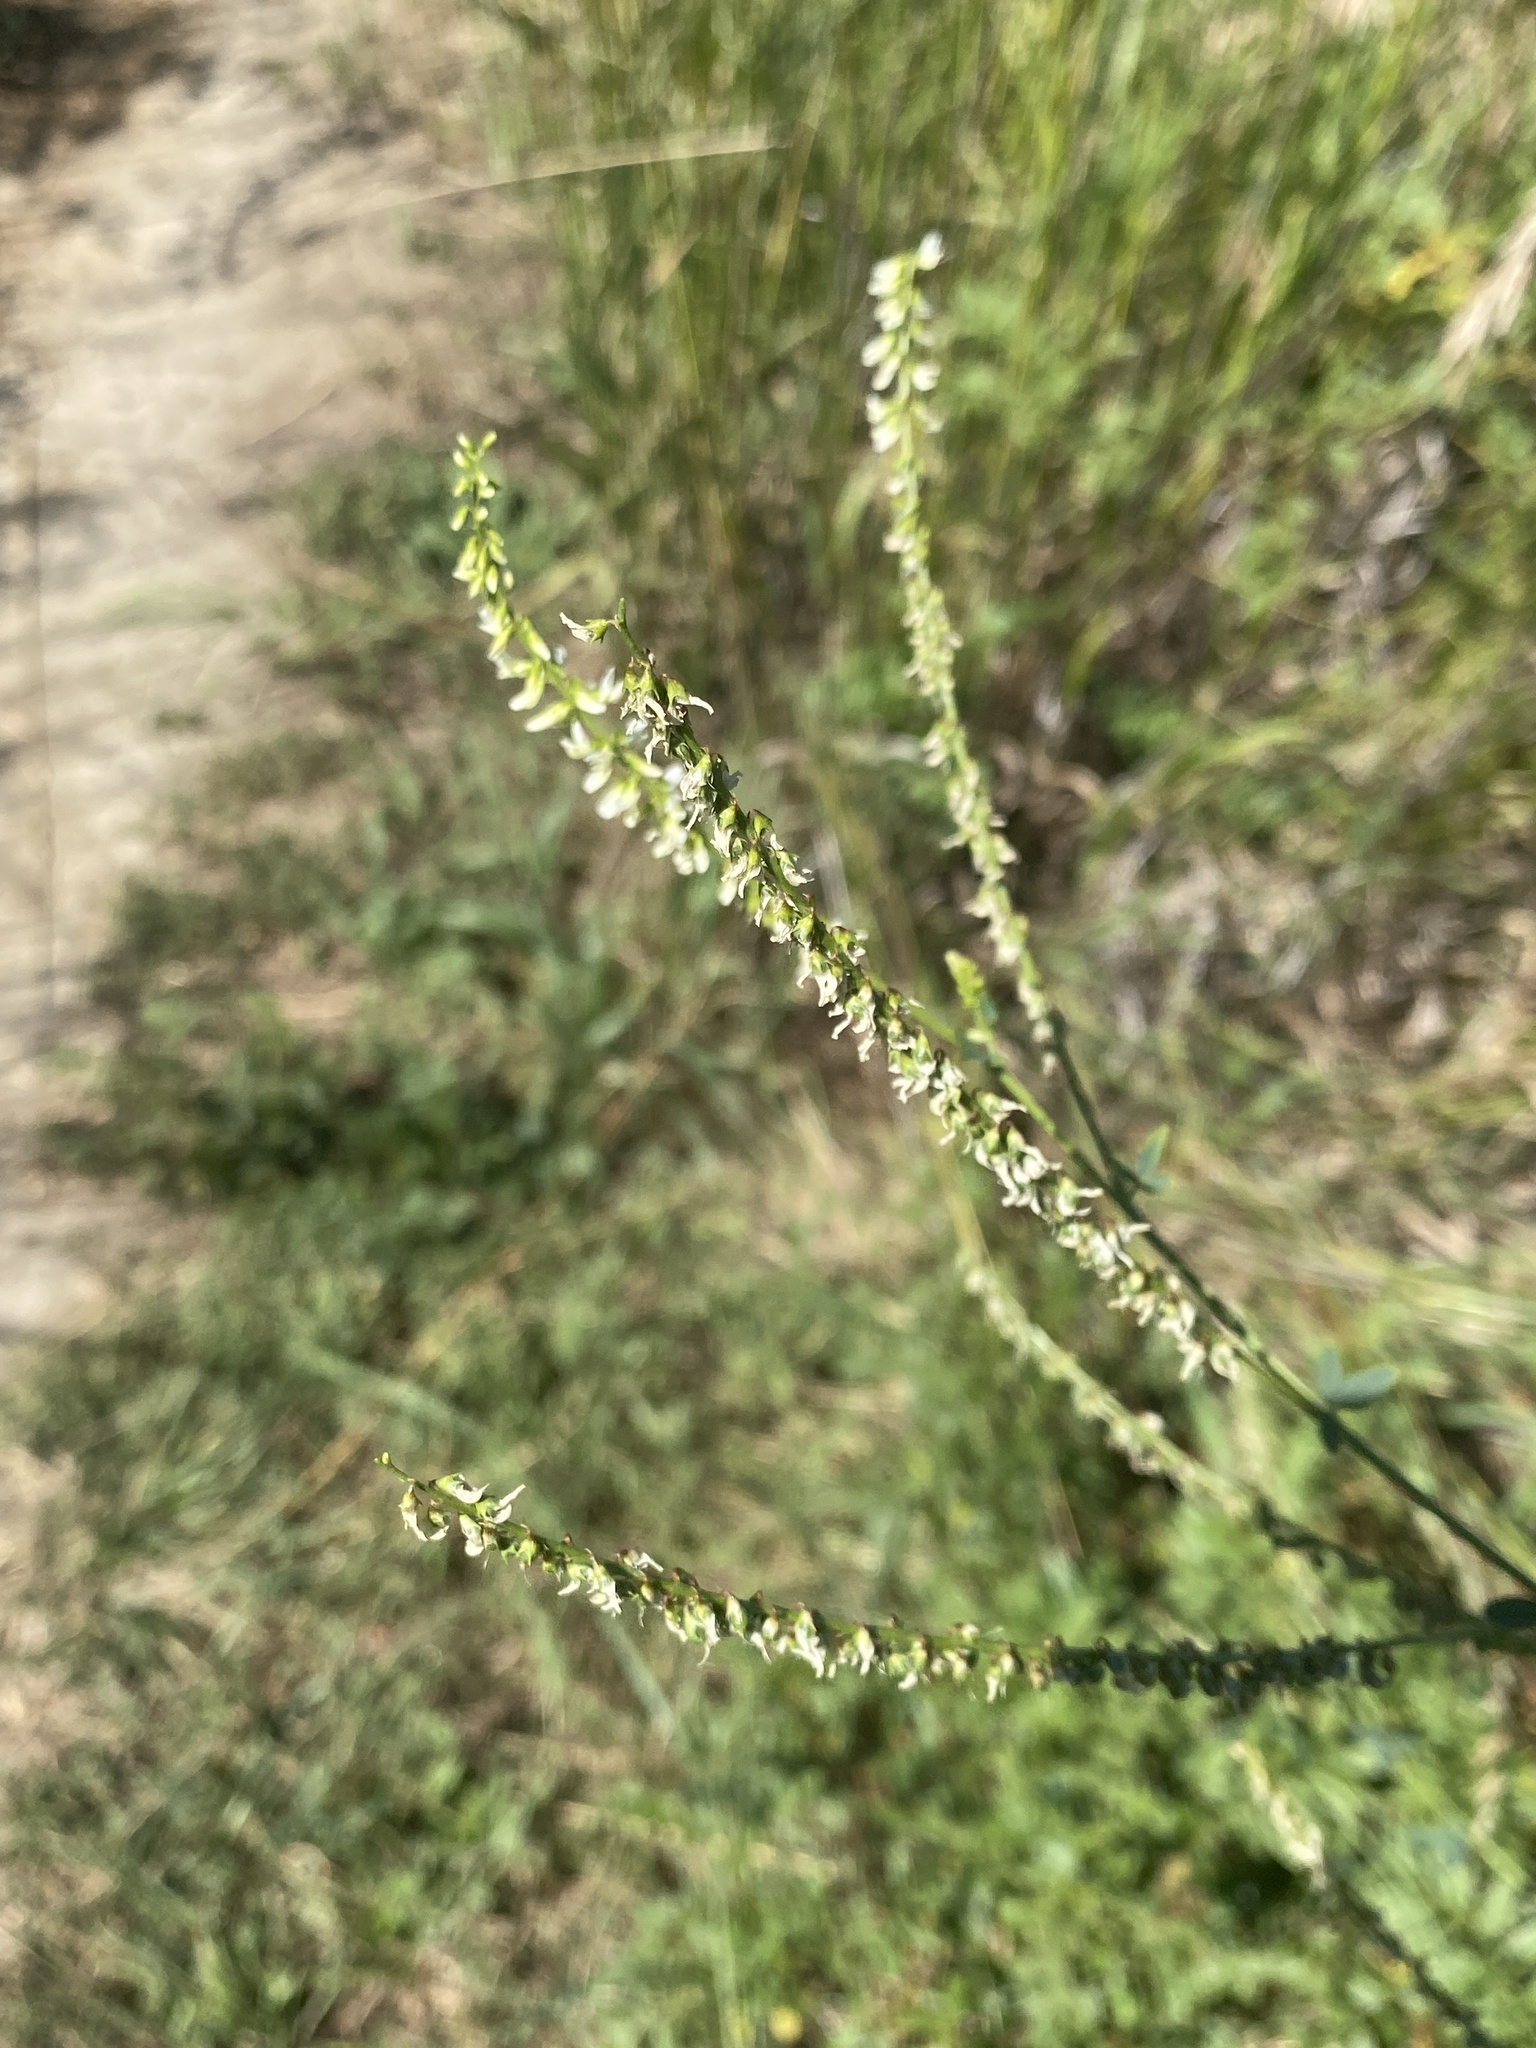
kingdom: Plantae
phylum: Tracheophyta
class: Magnoliopsida
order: Fabales
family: Fabaceae
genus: Melilotus
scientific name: Melilotus albus
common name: White melilot
